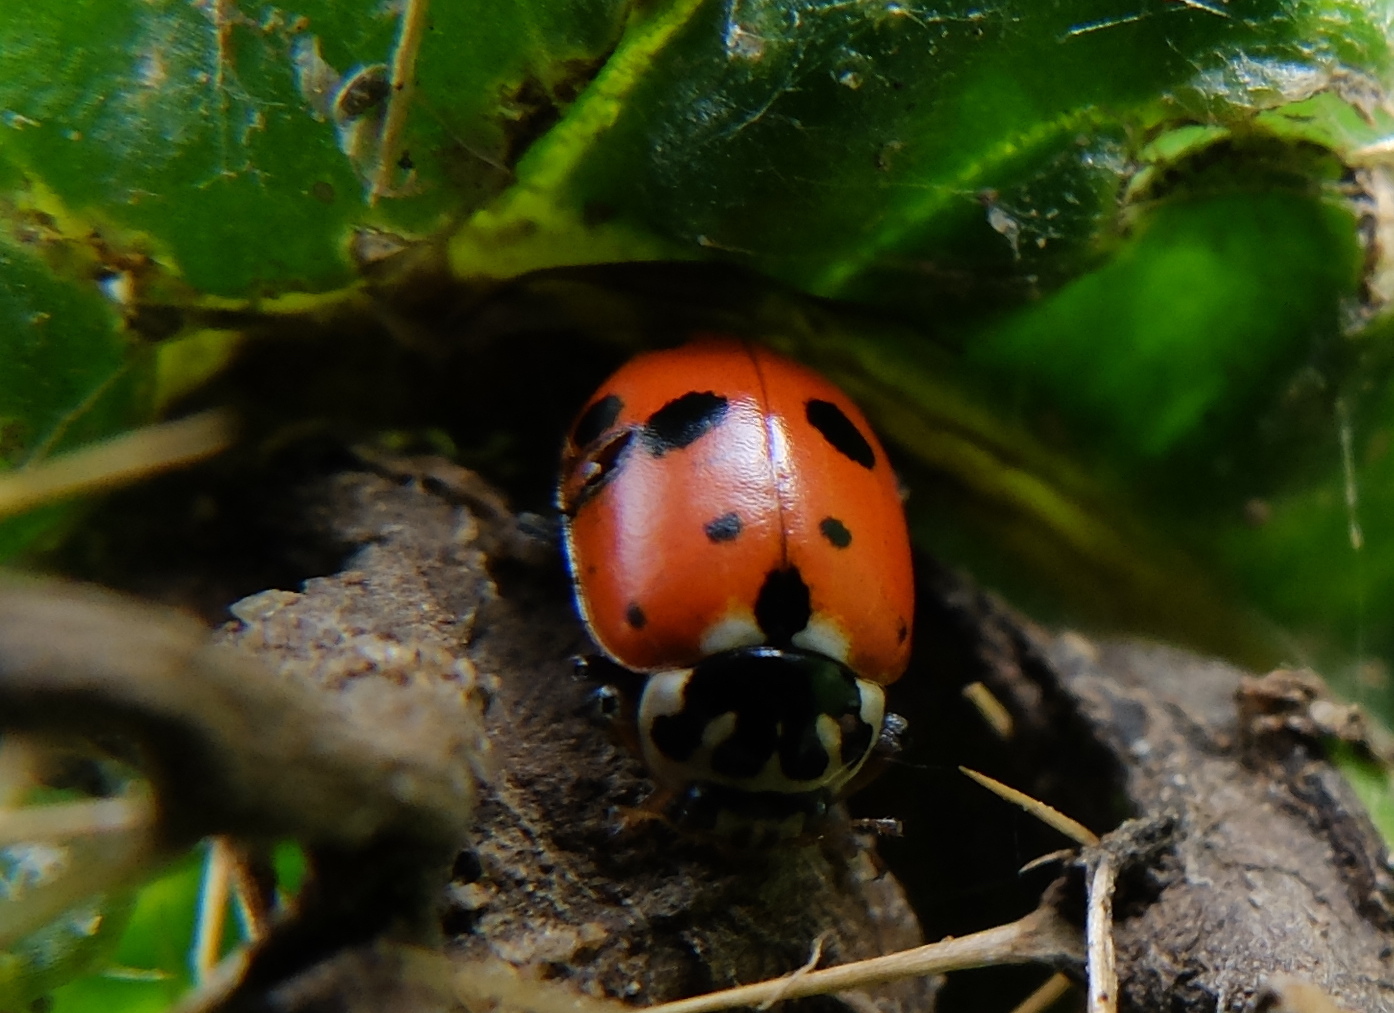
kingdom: Animalia
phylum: Arthropoda
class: Insecta
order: Coleoptera
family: Coccinellidae
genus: Hippodamia
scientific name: Hippodamia variegata
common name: Ladybird beetle
